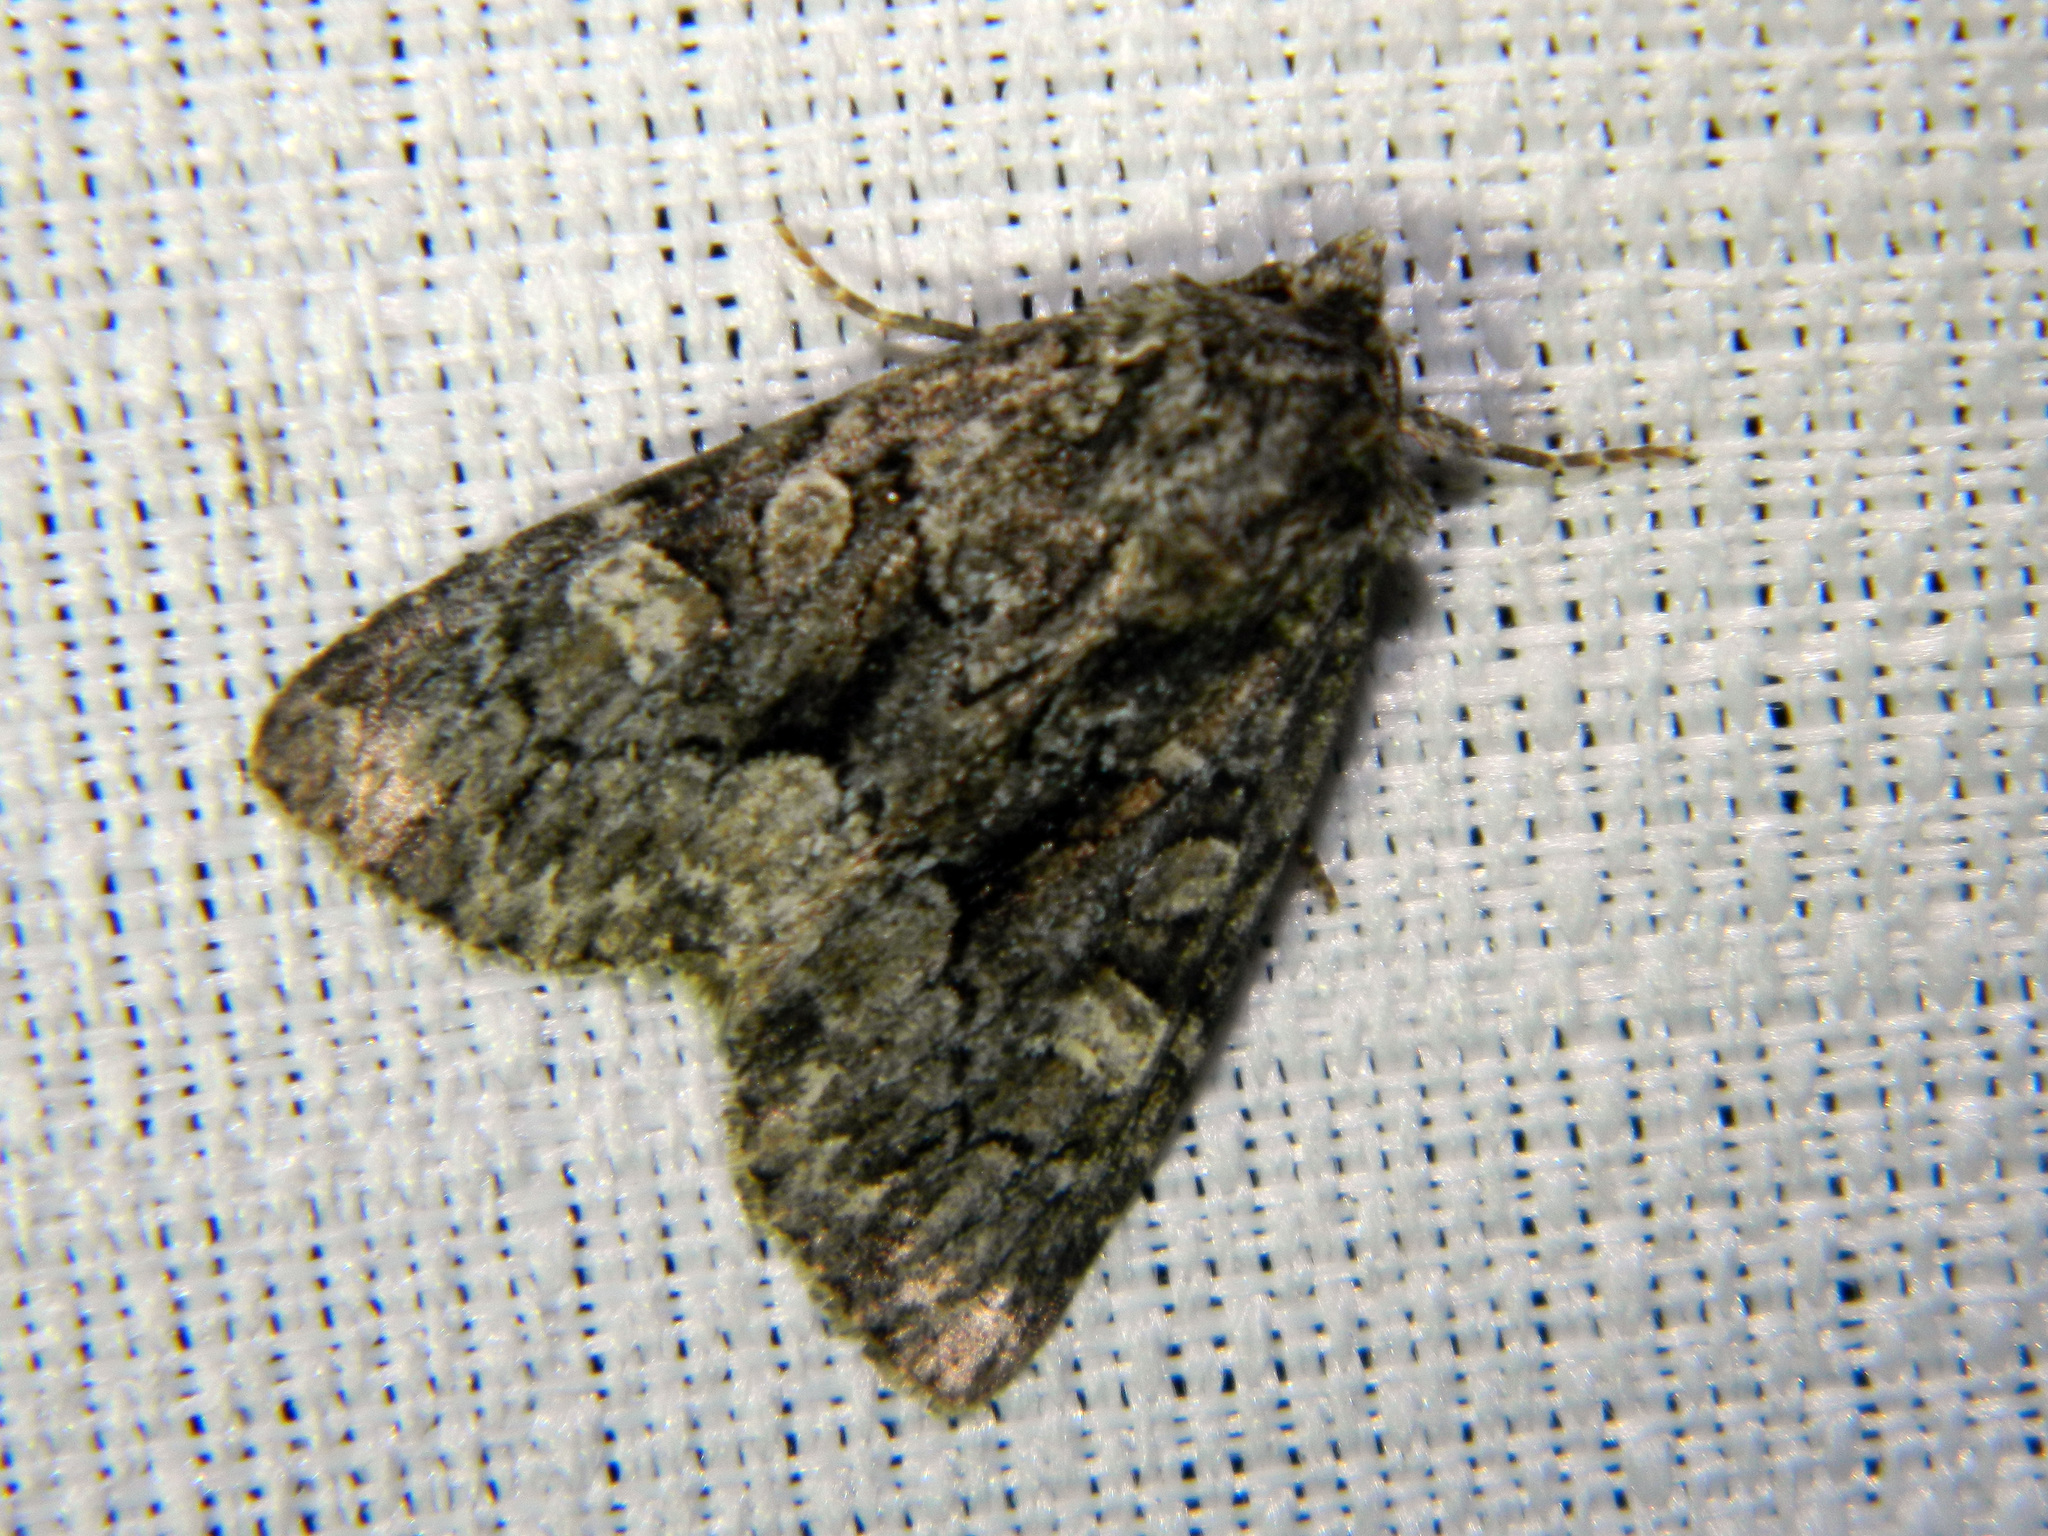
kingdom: Animalia
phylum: Arthropoda
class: Insecta
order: Lepidoptera
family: Noctuidae
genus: Platypolia
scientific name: Platypolia mactata
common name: Adorable brocade moth
